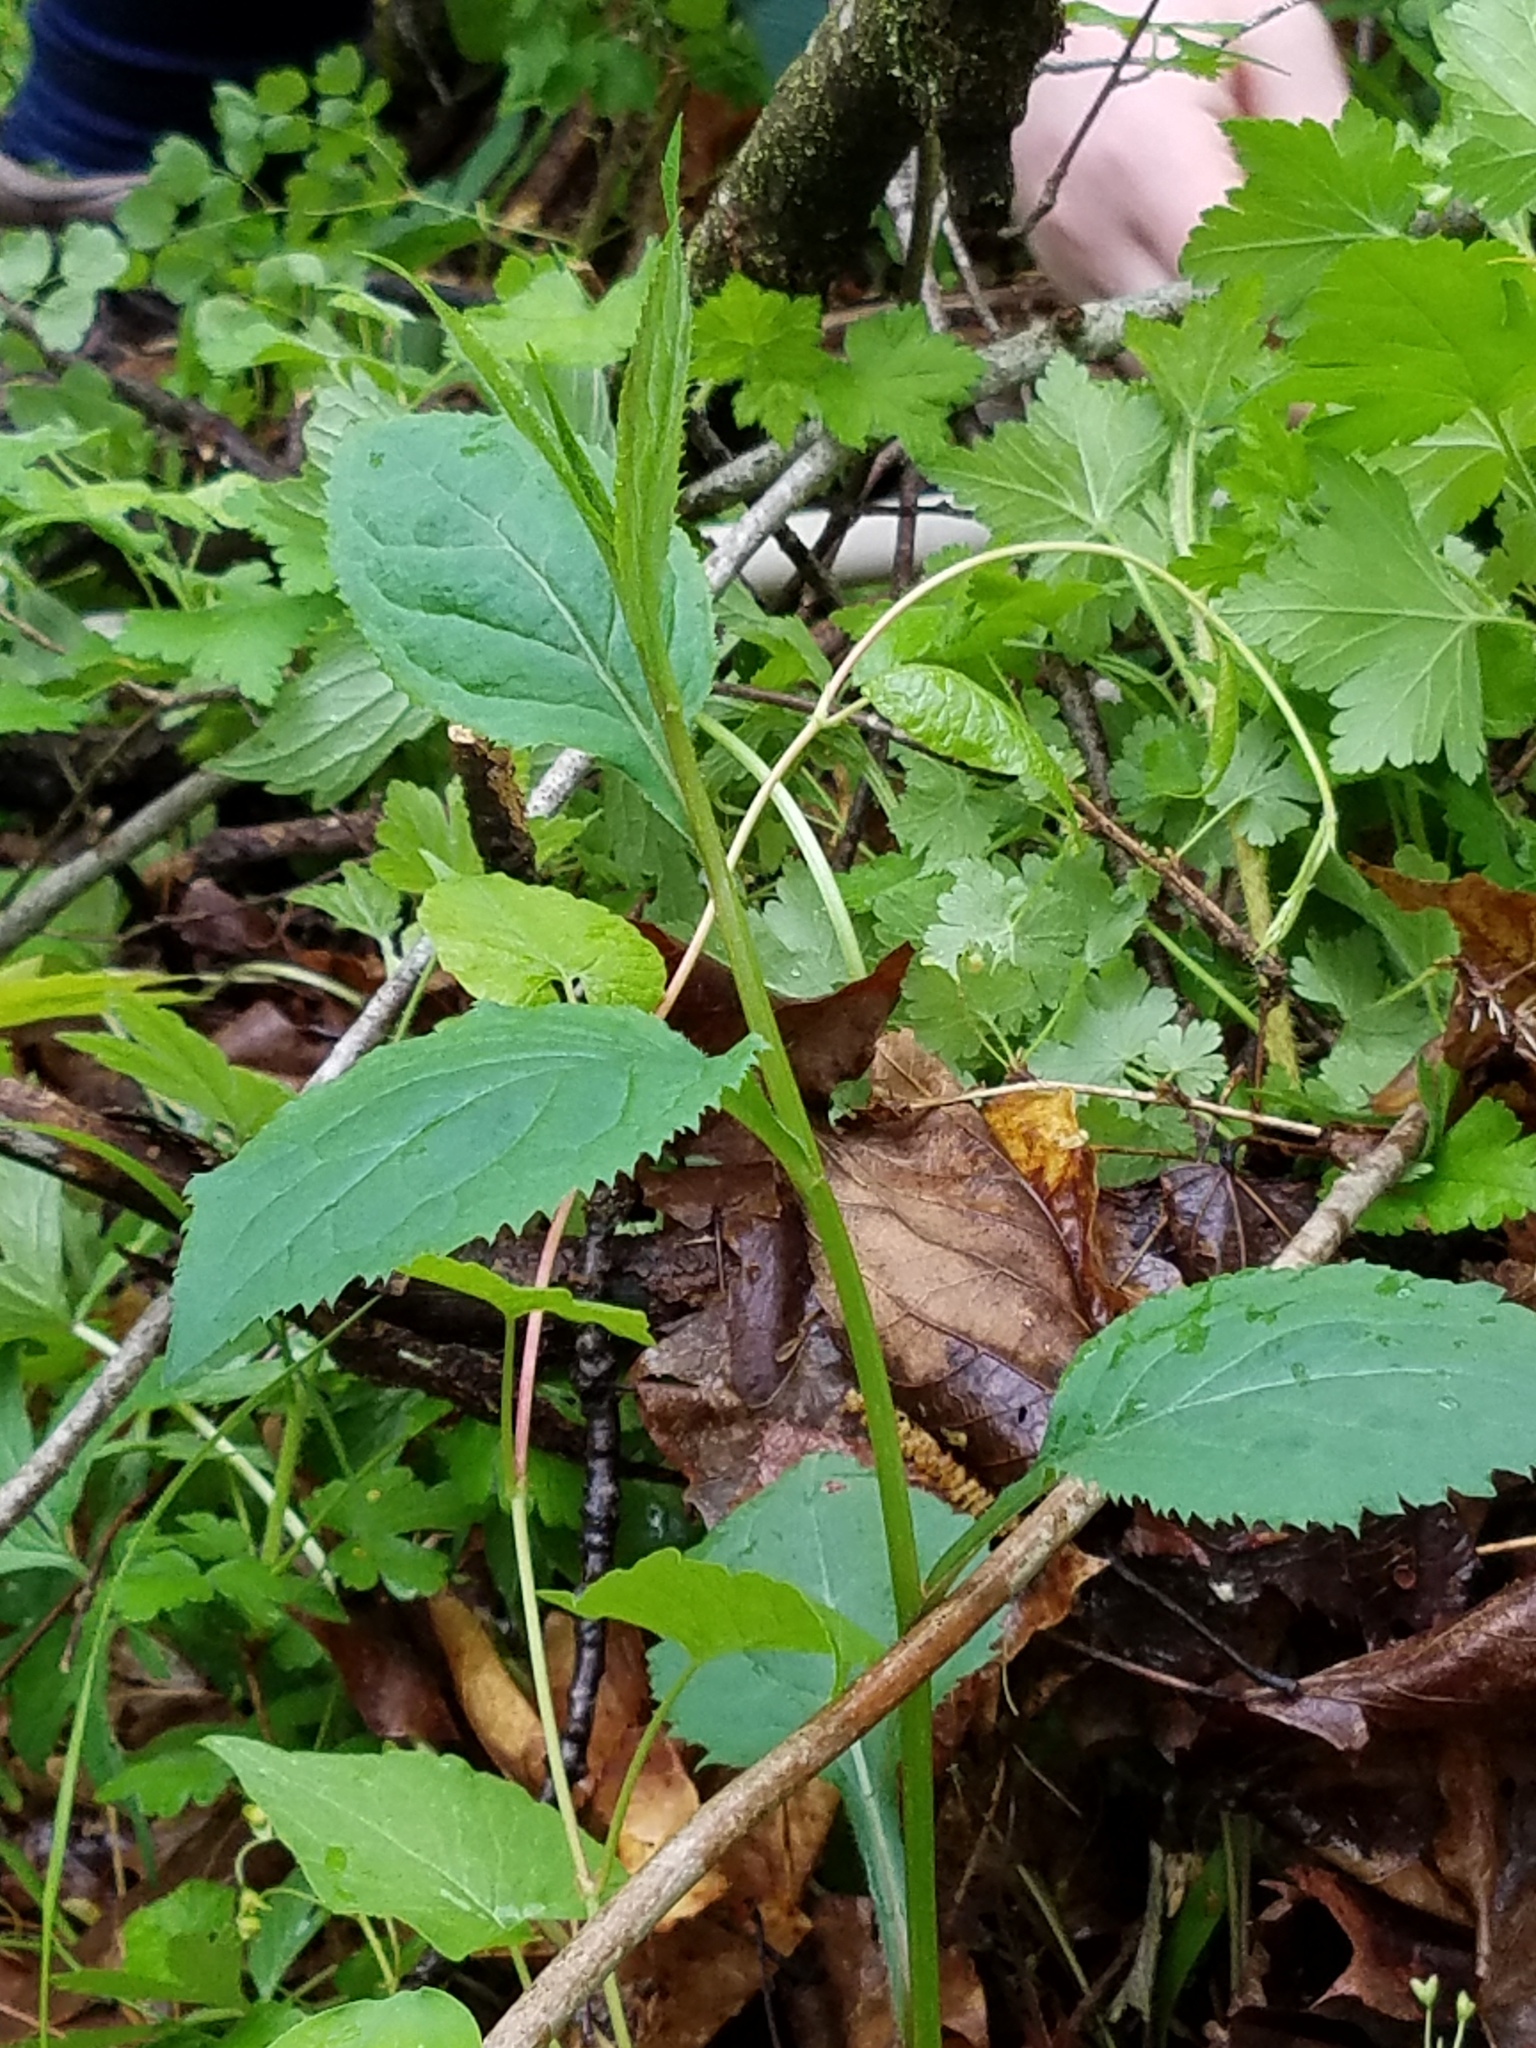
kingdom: Plantae
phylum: Tracheophyta
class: Magnoliopsida
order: Asterales
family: Asteraceae
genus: Solidago
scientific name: Solidago flexicaulis
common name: Zig-zag goldenrod
